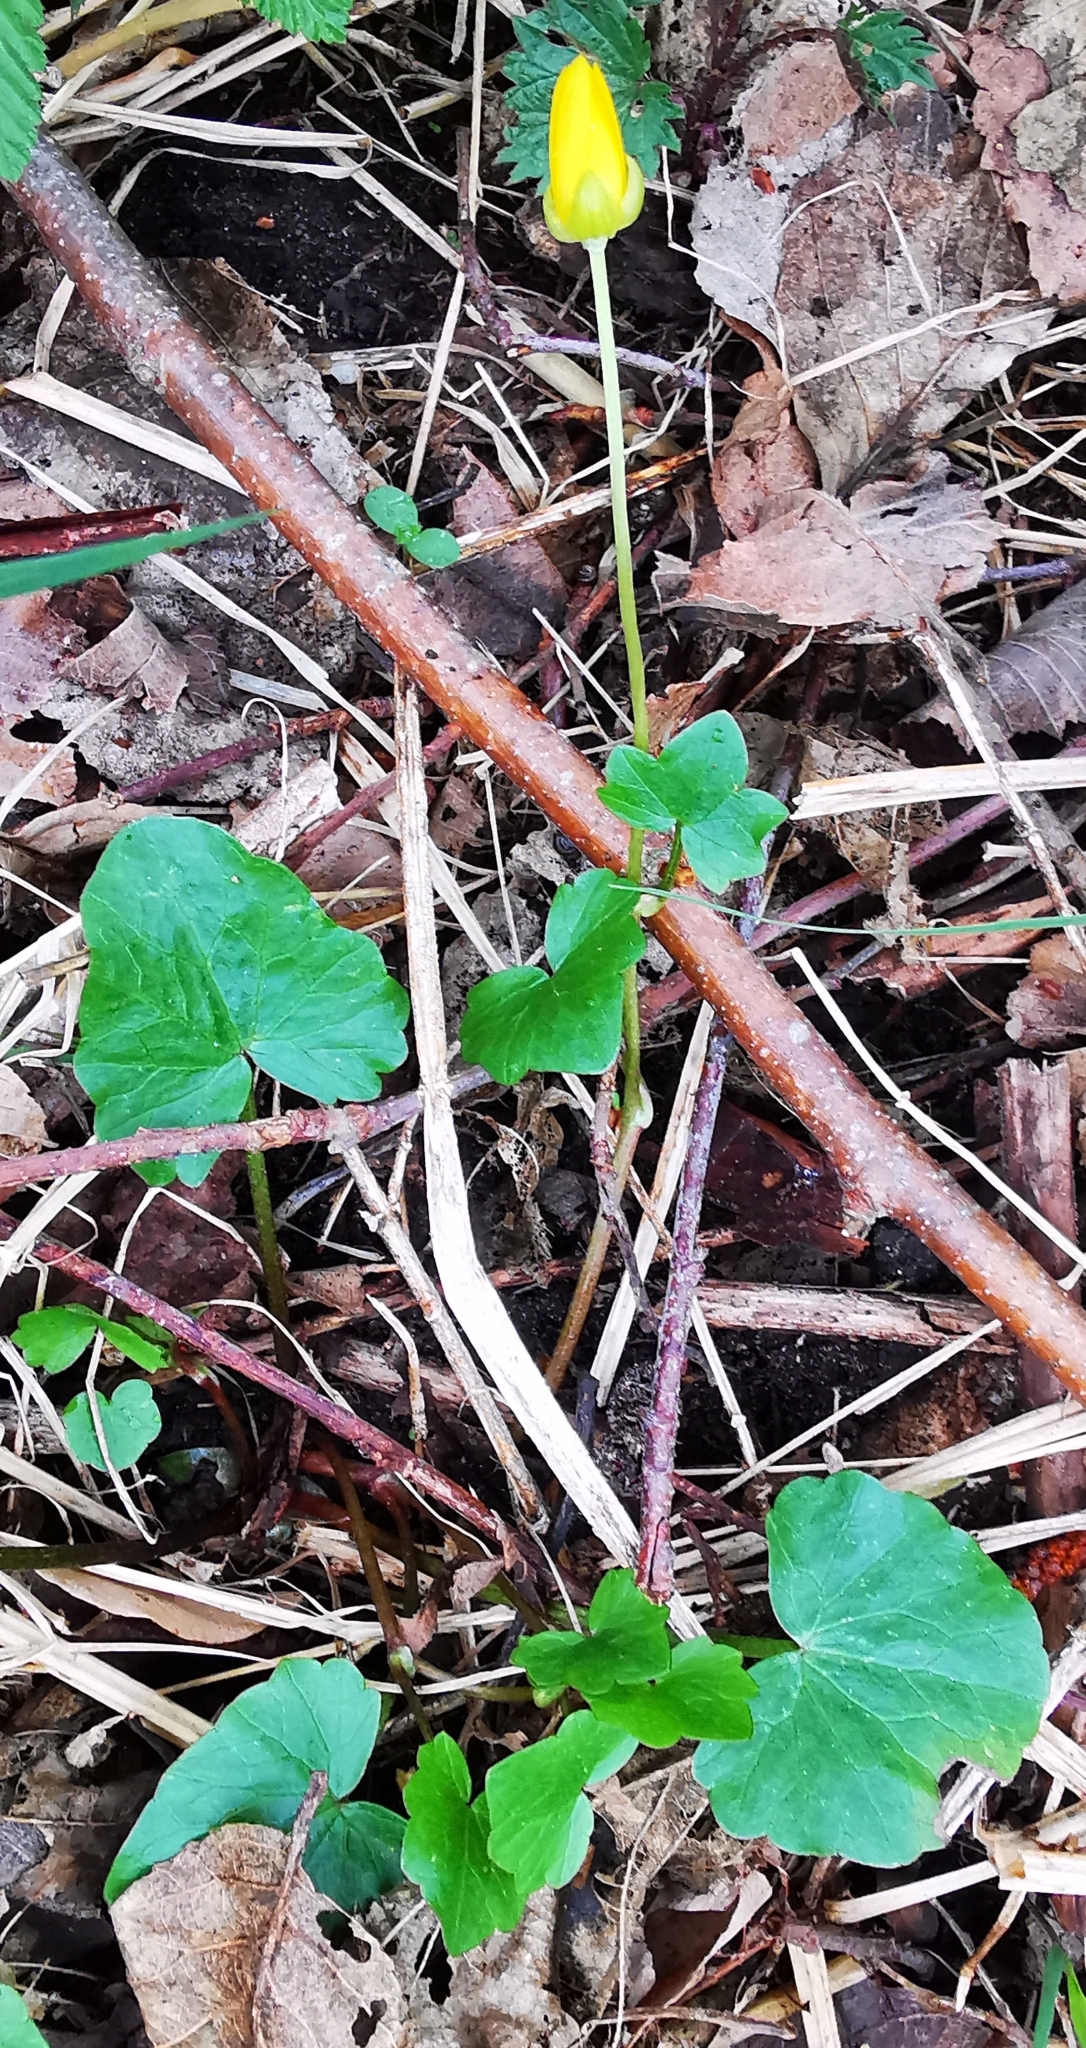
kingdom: Plantae
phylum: Tracheophyta
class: Magnoliopsida
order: Ranunculales
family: Ranunculaceae
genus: Ficaria
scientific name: Ficaria verna
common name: Lesser celandine
